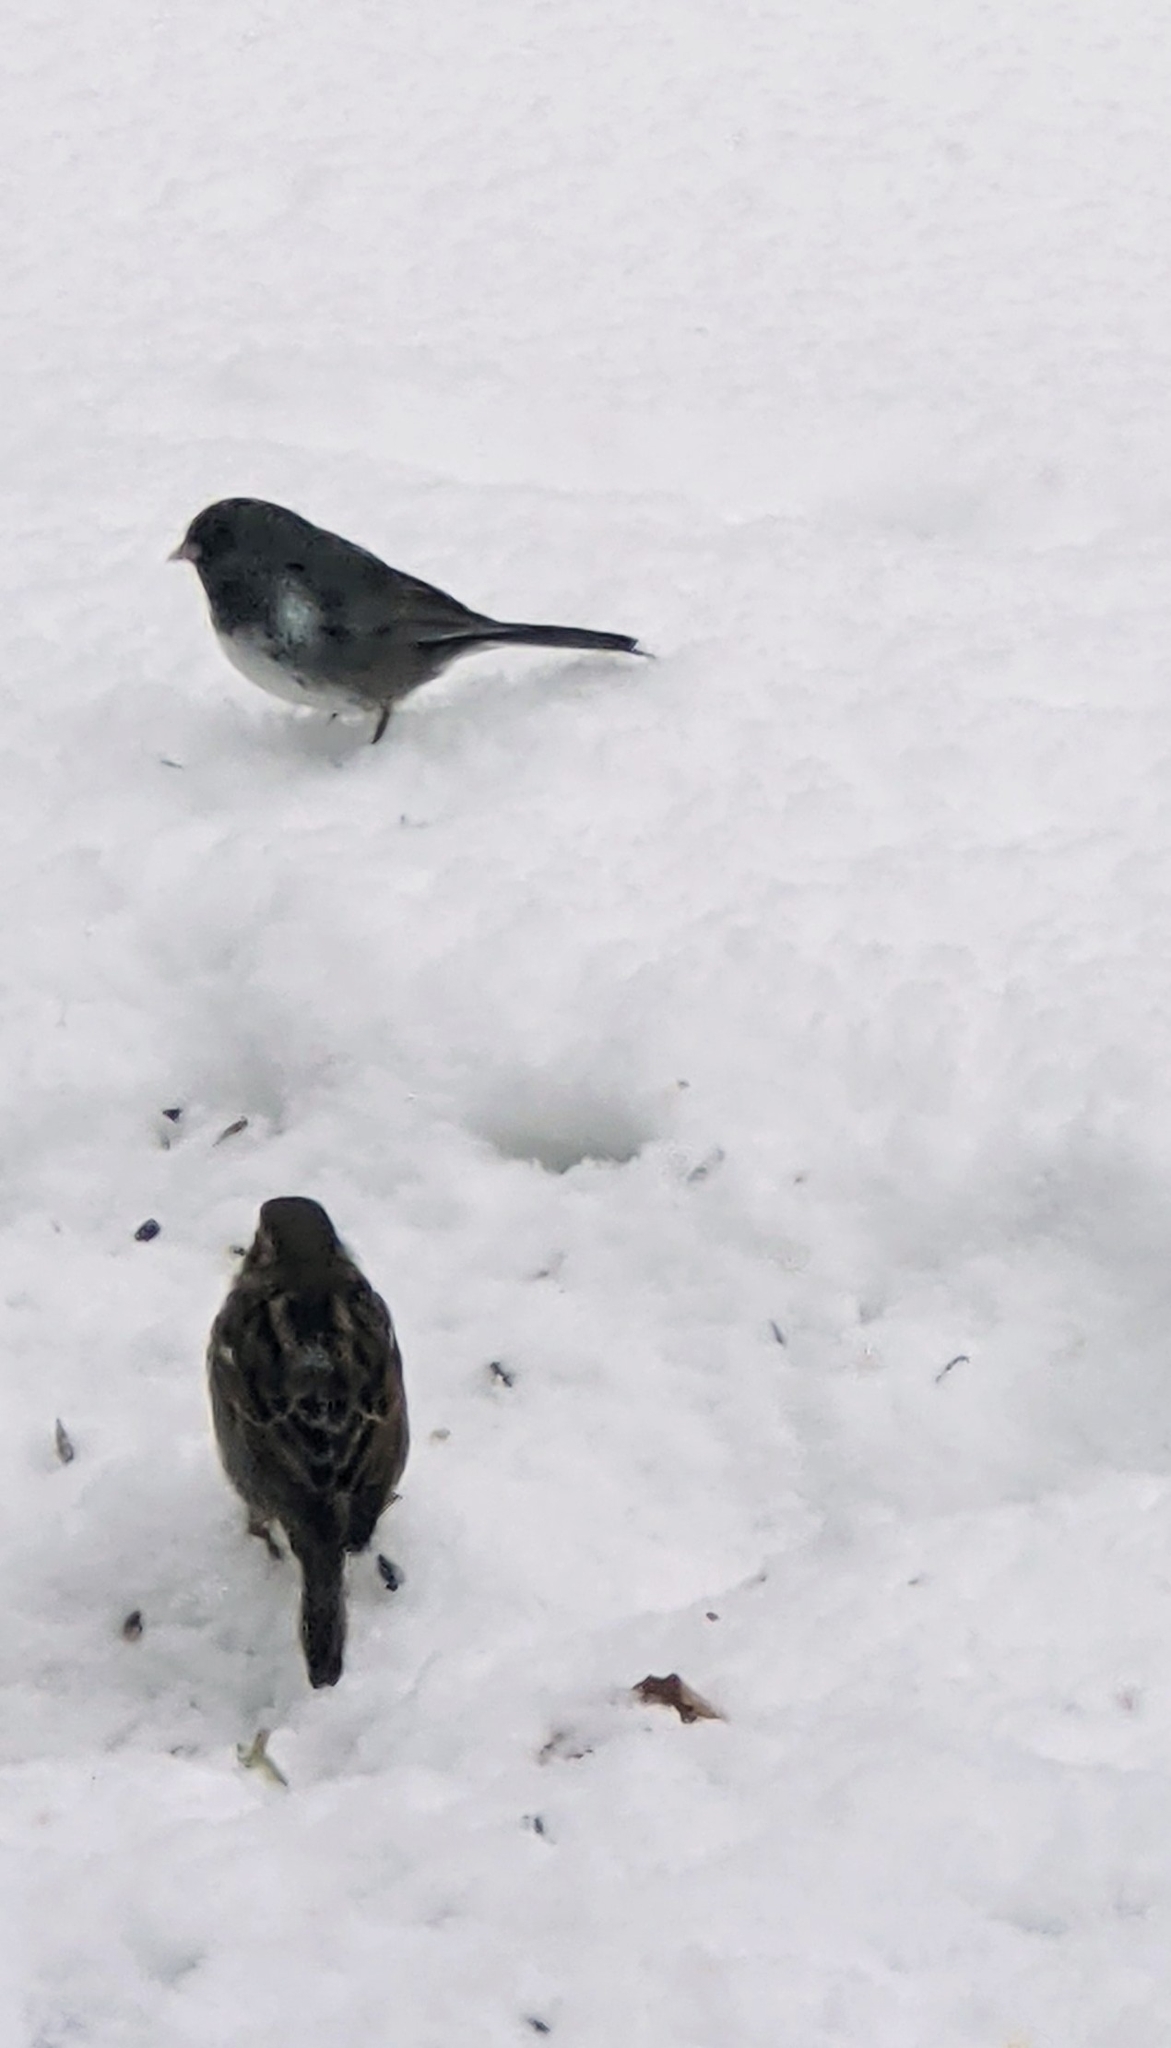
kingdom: Animalia
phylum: Chordata
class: Aves
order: Passeriformes
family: Passerellidae
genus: Junco
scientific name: Junco hyemalis
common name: Dark-eyed junco
